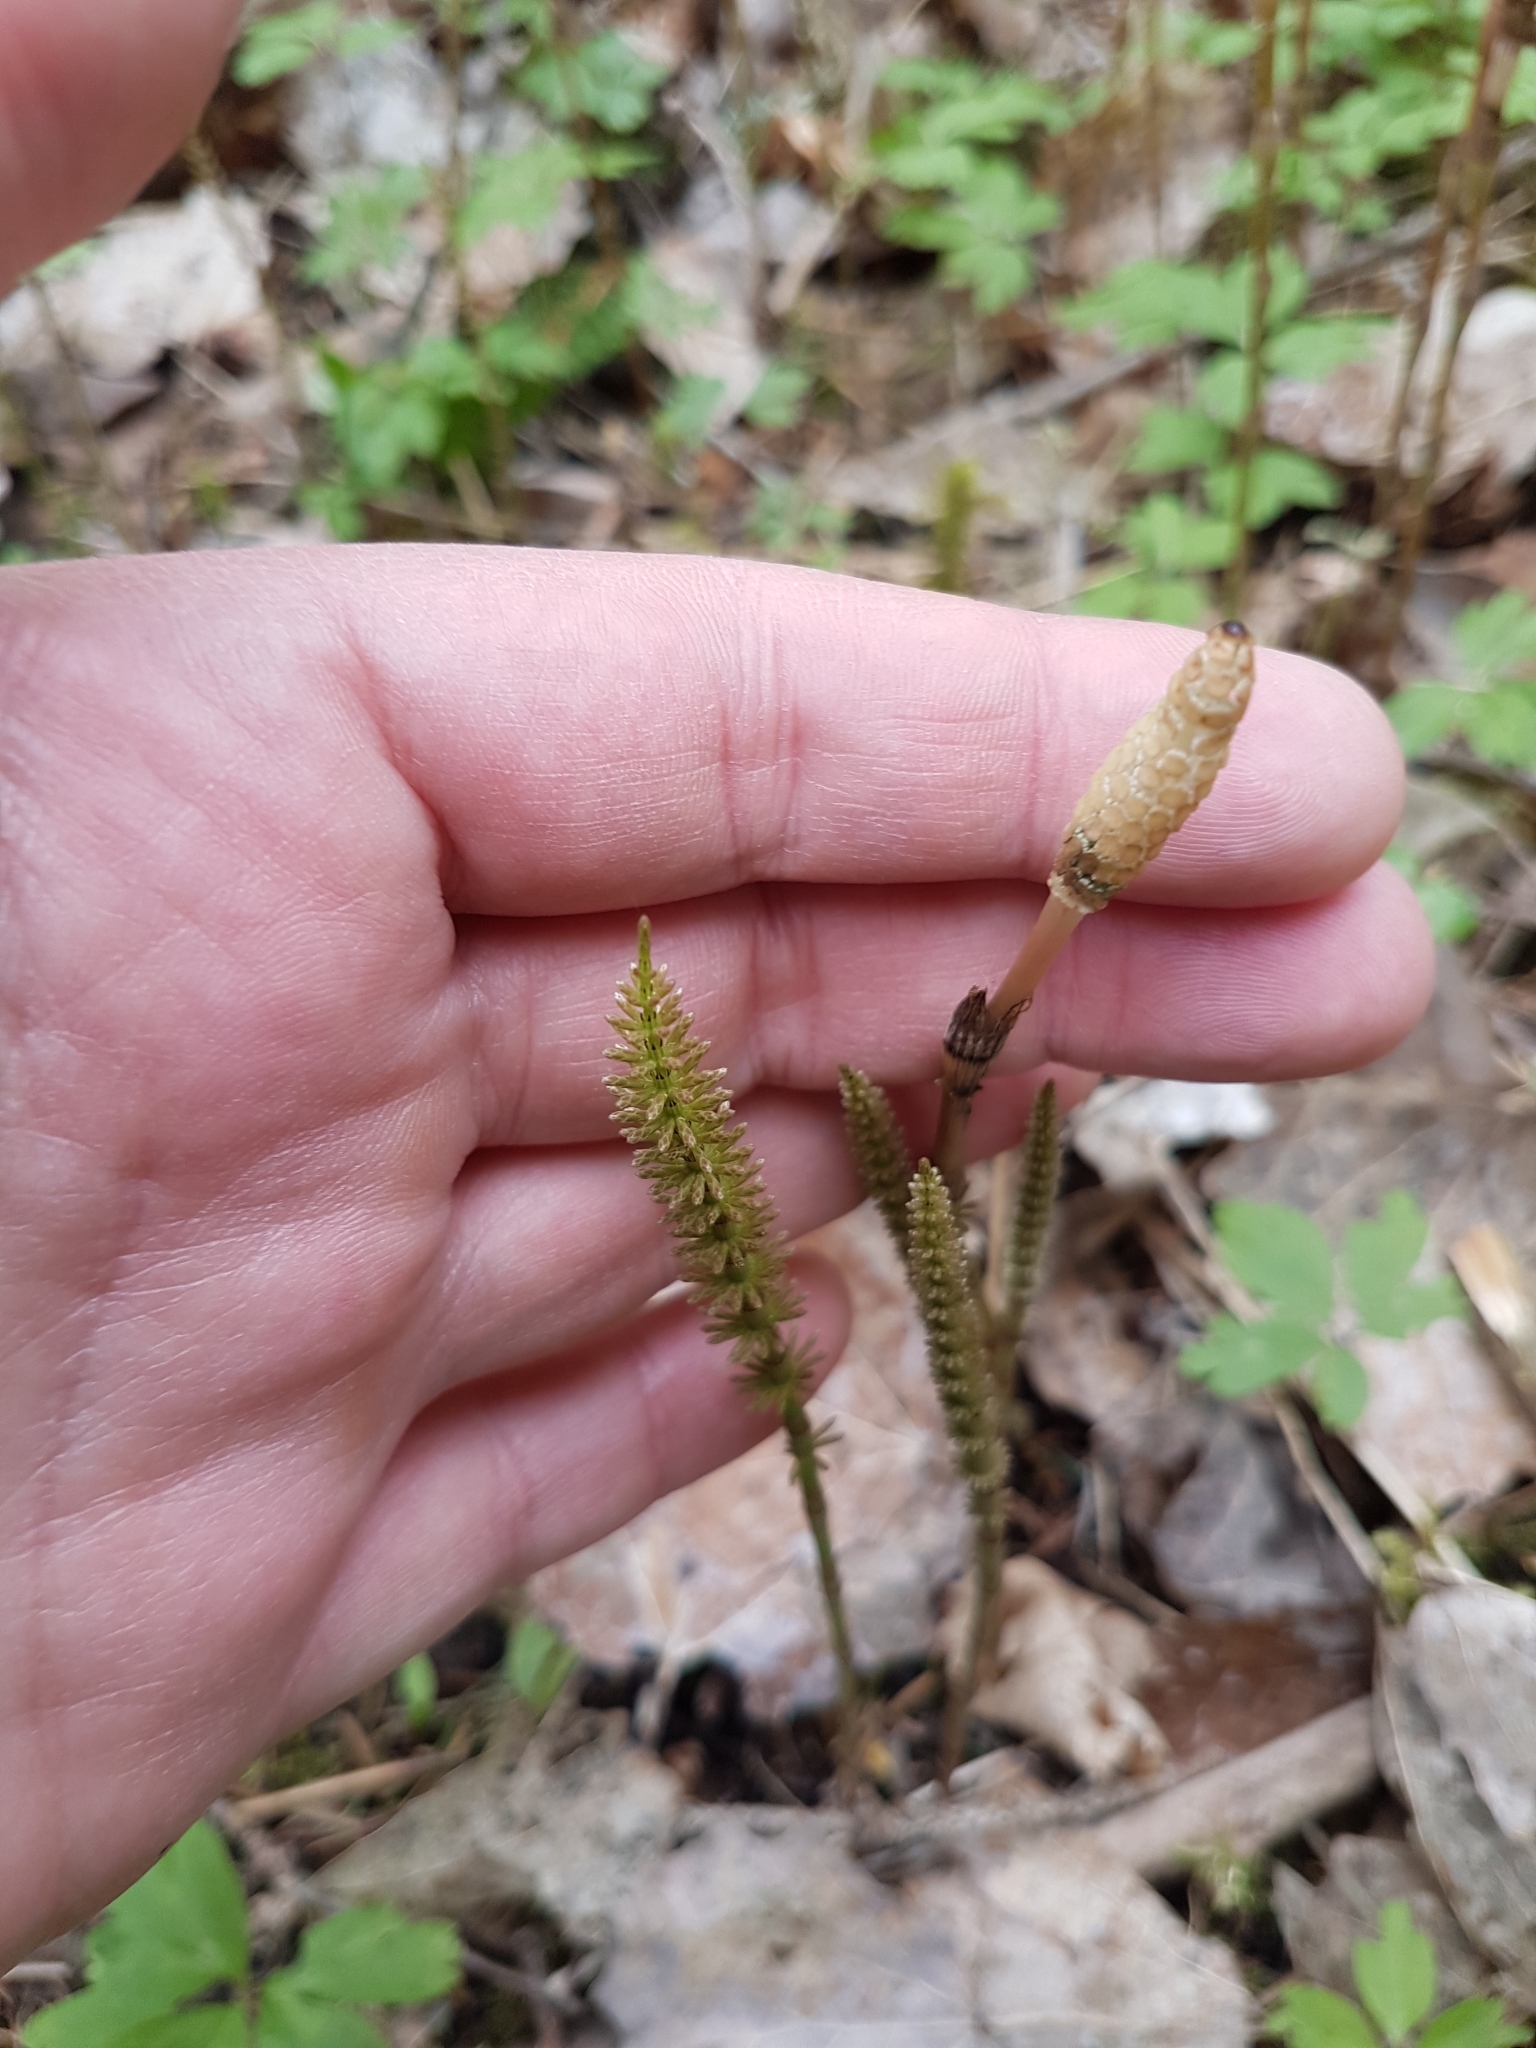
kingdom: Plantae
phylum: Tracheophyta
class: Polypodiopsida
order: Equisetales
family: Equisetaceae
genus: Equisetum
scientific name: Equisetum pratense
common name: Meadow horsetail
